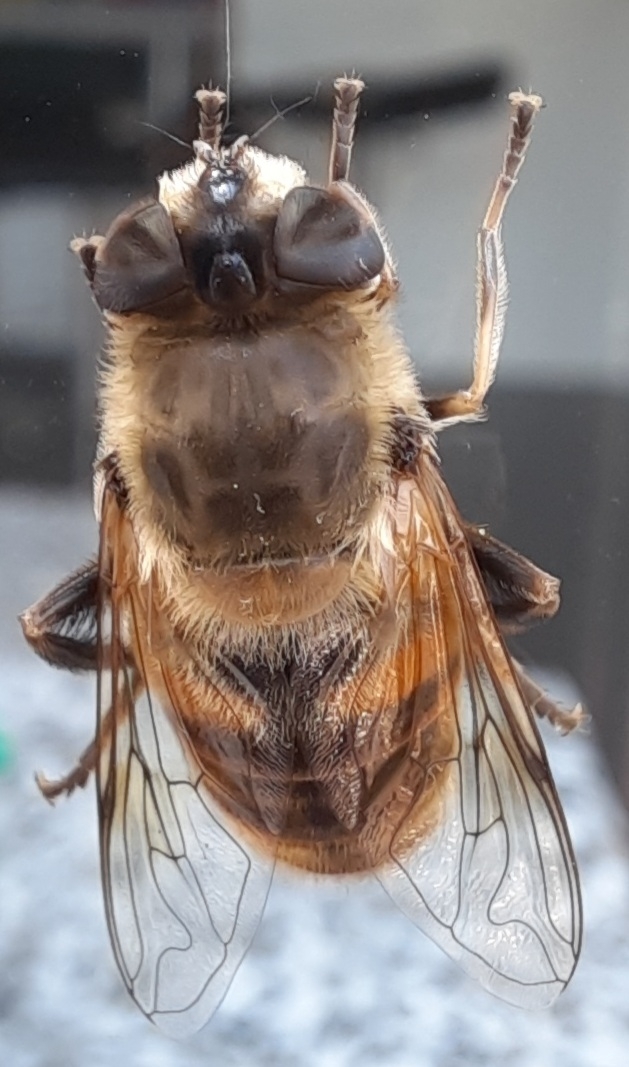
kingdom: Animalia
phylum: Arthropoda
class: Insecta
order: Diptera
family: Syrphidae
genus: Eristalis
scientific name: Eristalis tenax
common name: Drone fly
